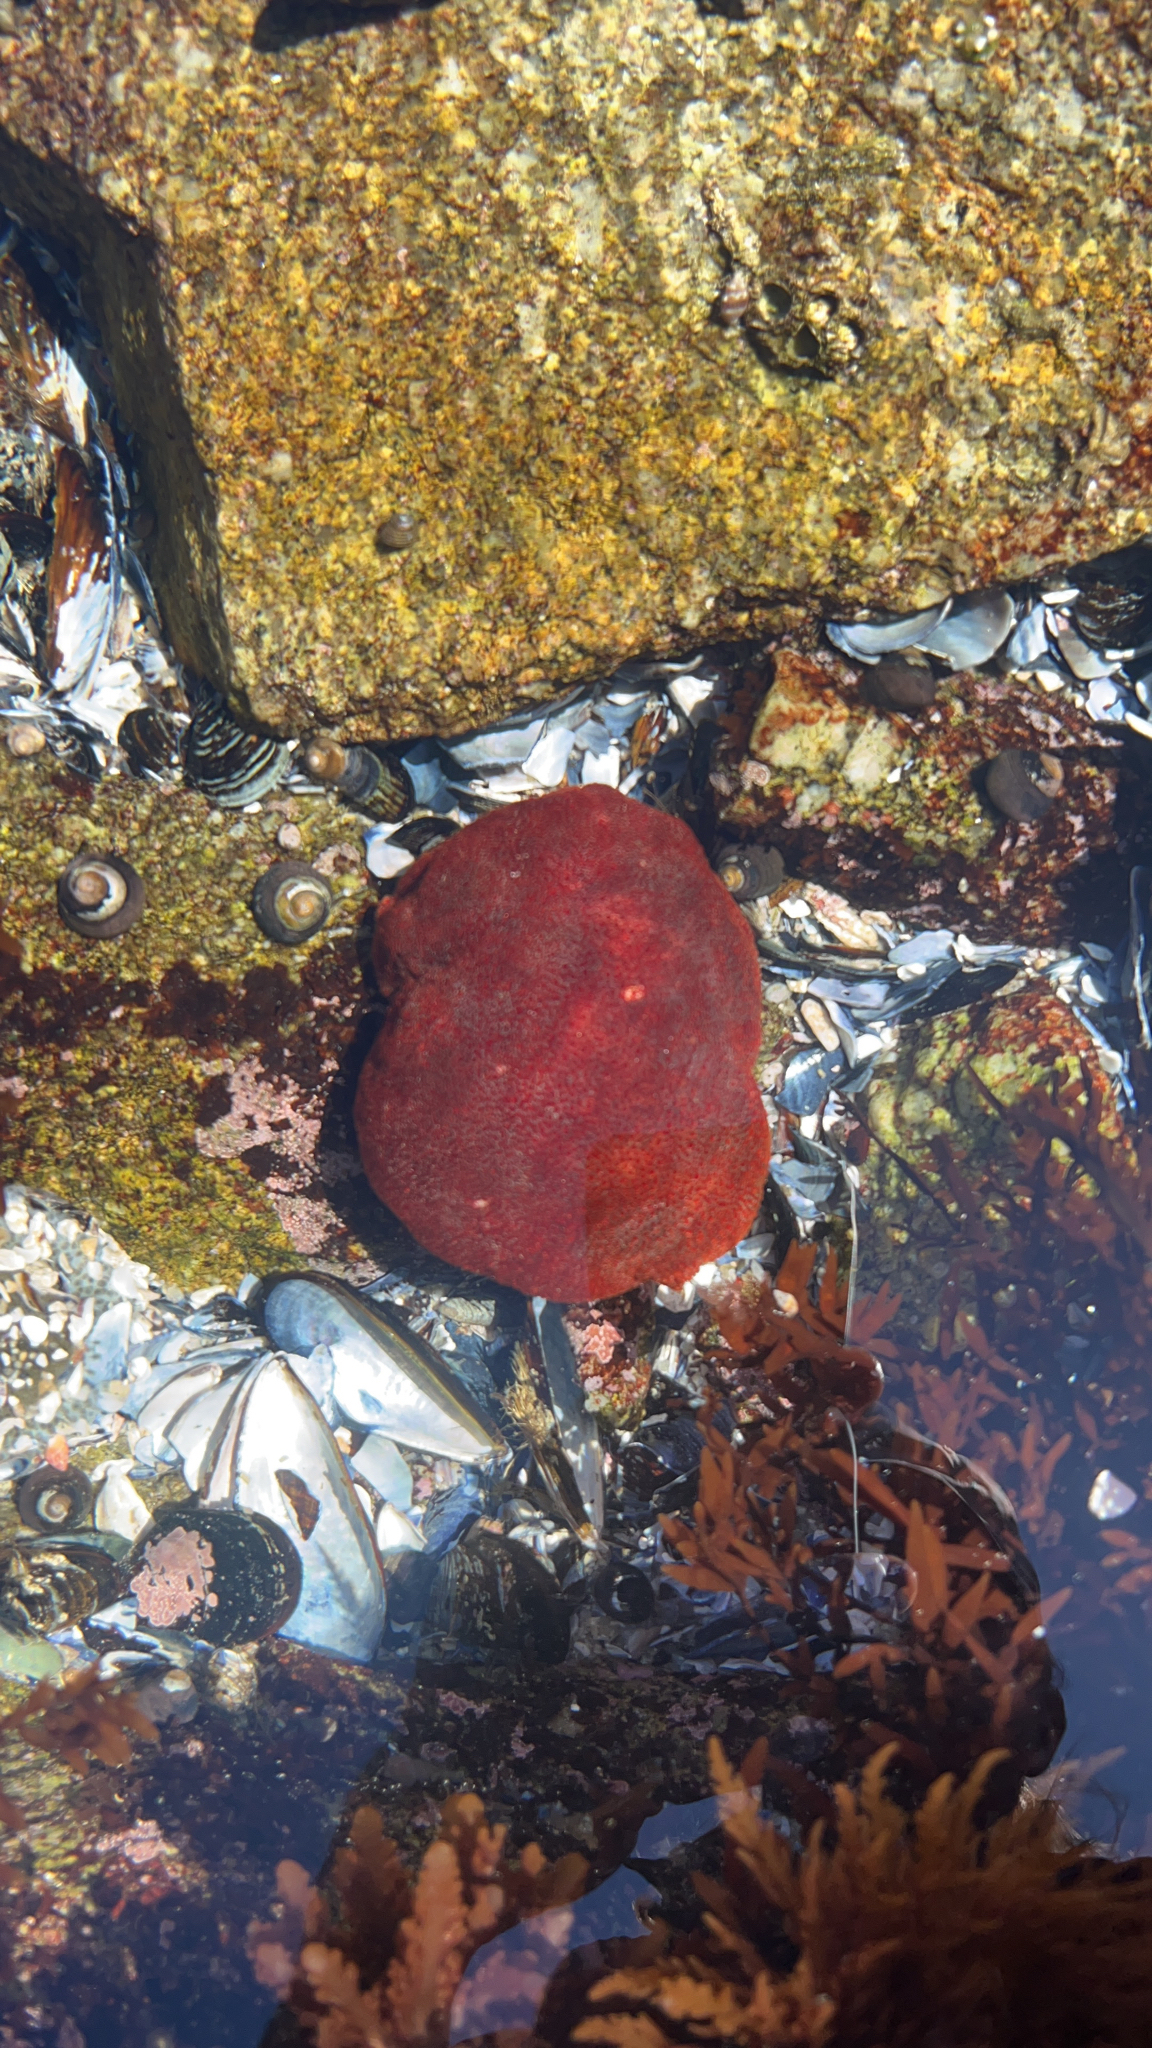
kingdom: Animalia
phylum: Mollusca
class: Polyplacophora
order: Chitonida
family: Acanthochitonidae
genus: Cryptochiton
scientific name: Cryptochiton stelleri
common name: Giant pacific chiton
